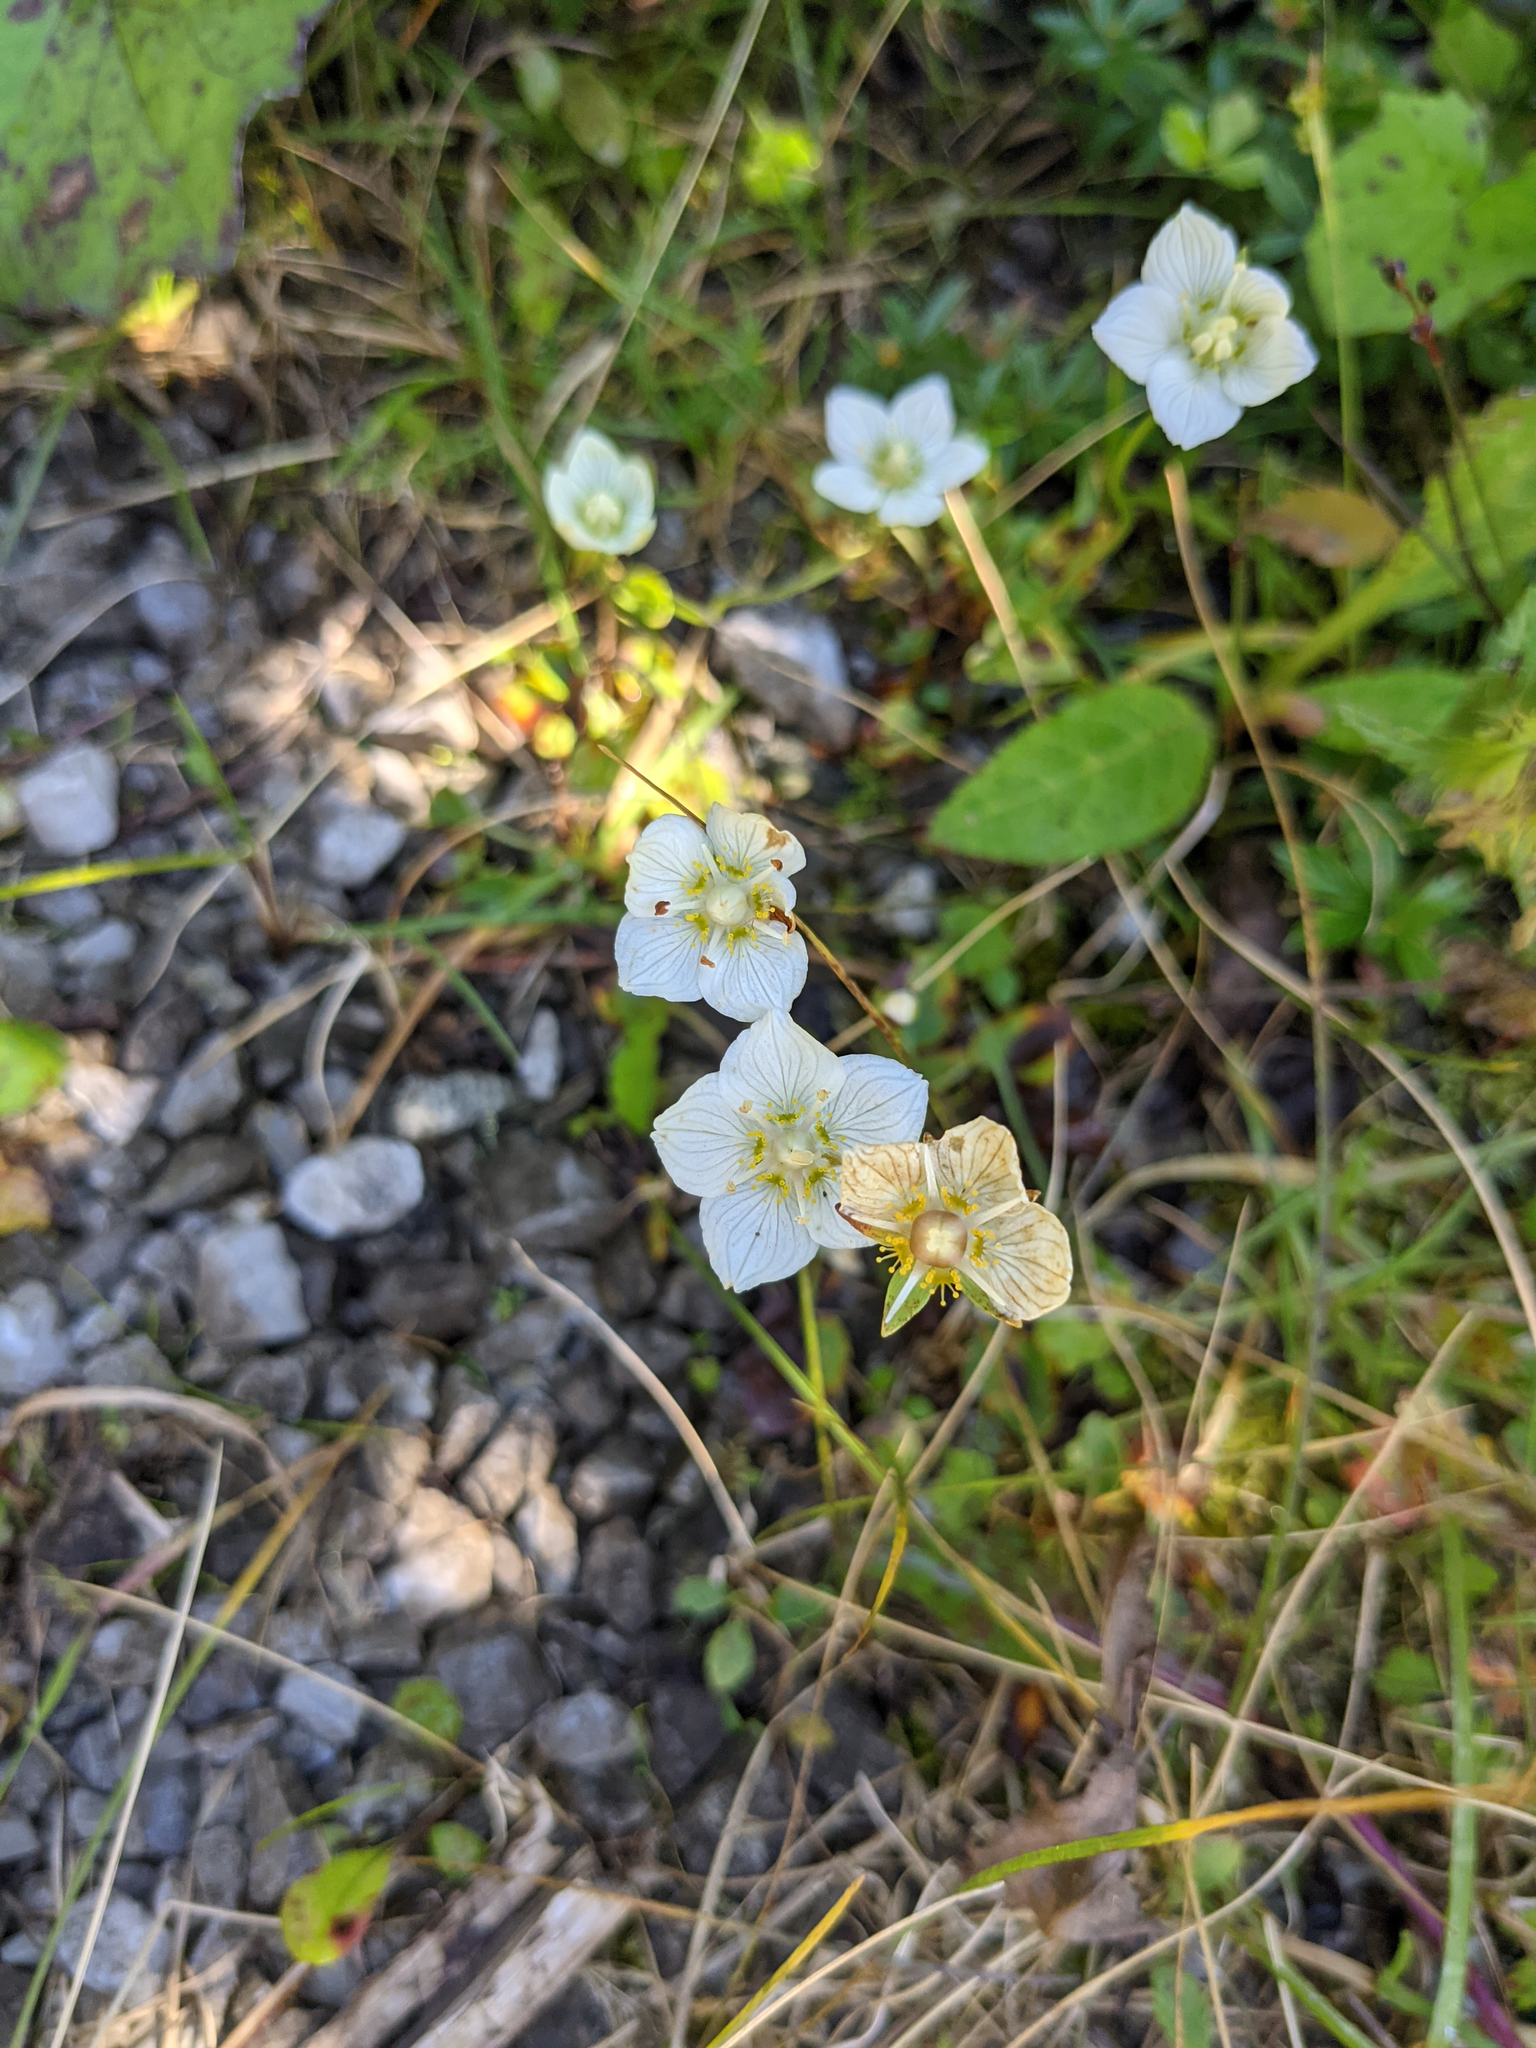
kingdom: Plantae
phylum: Tracheophyta
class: Magnoliopsida
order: Celastrales
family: Parnassiaceae
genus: Parnassia
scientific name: Parnassia palustris
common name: Grass-of-parnassus
